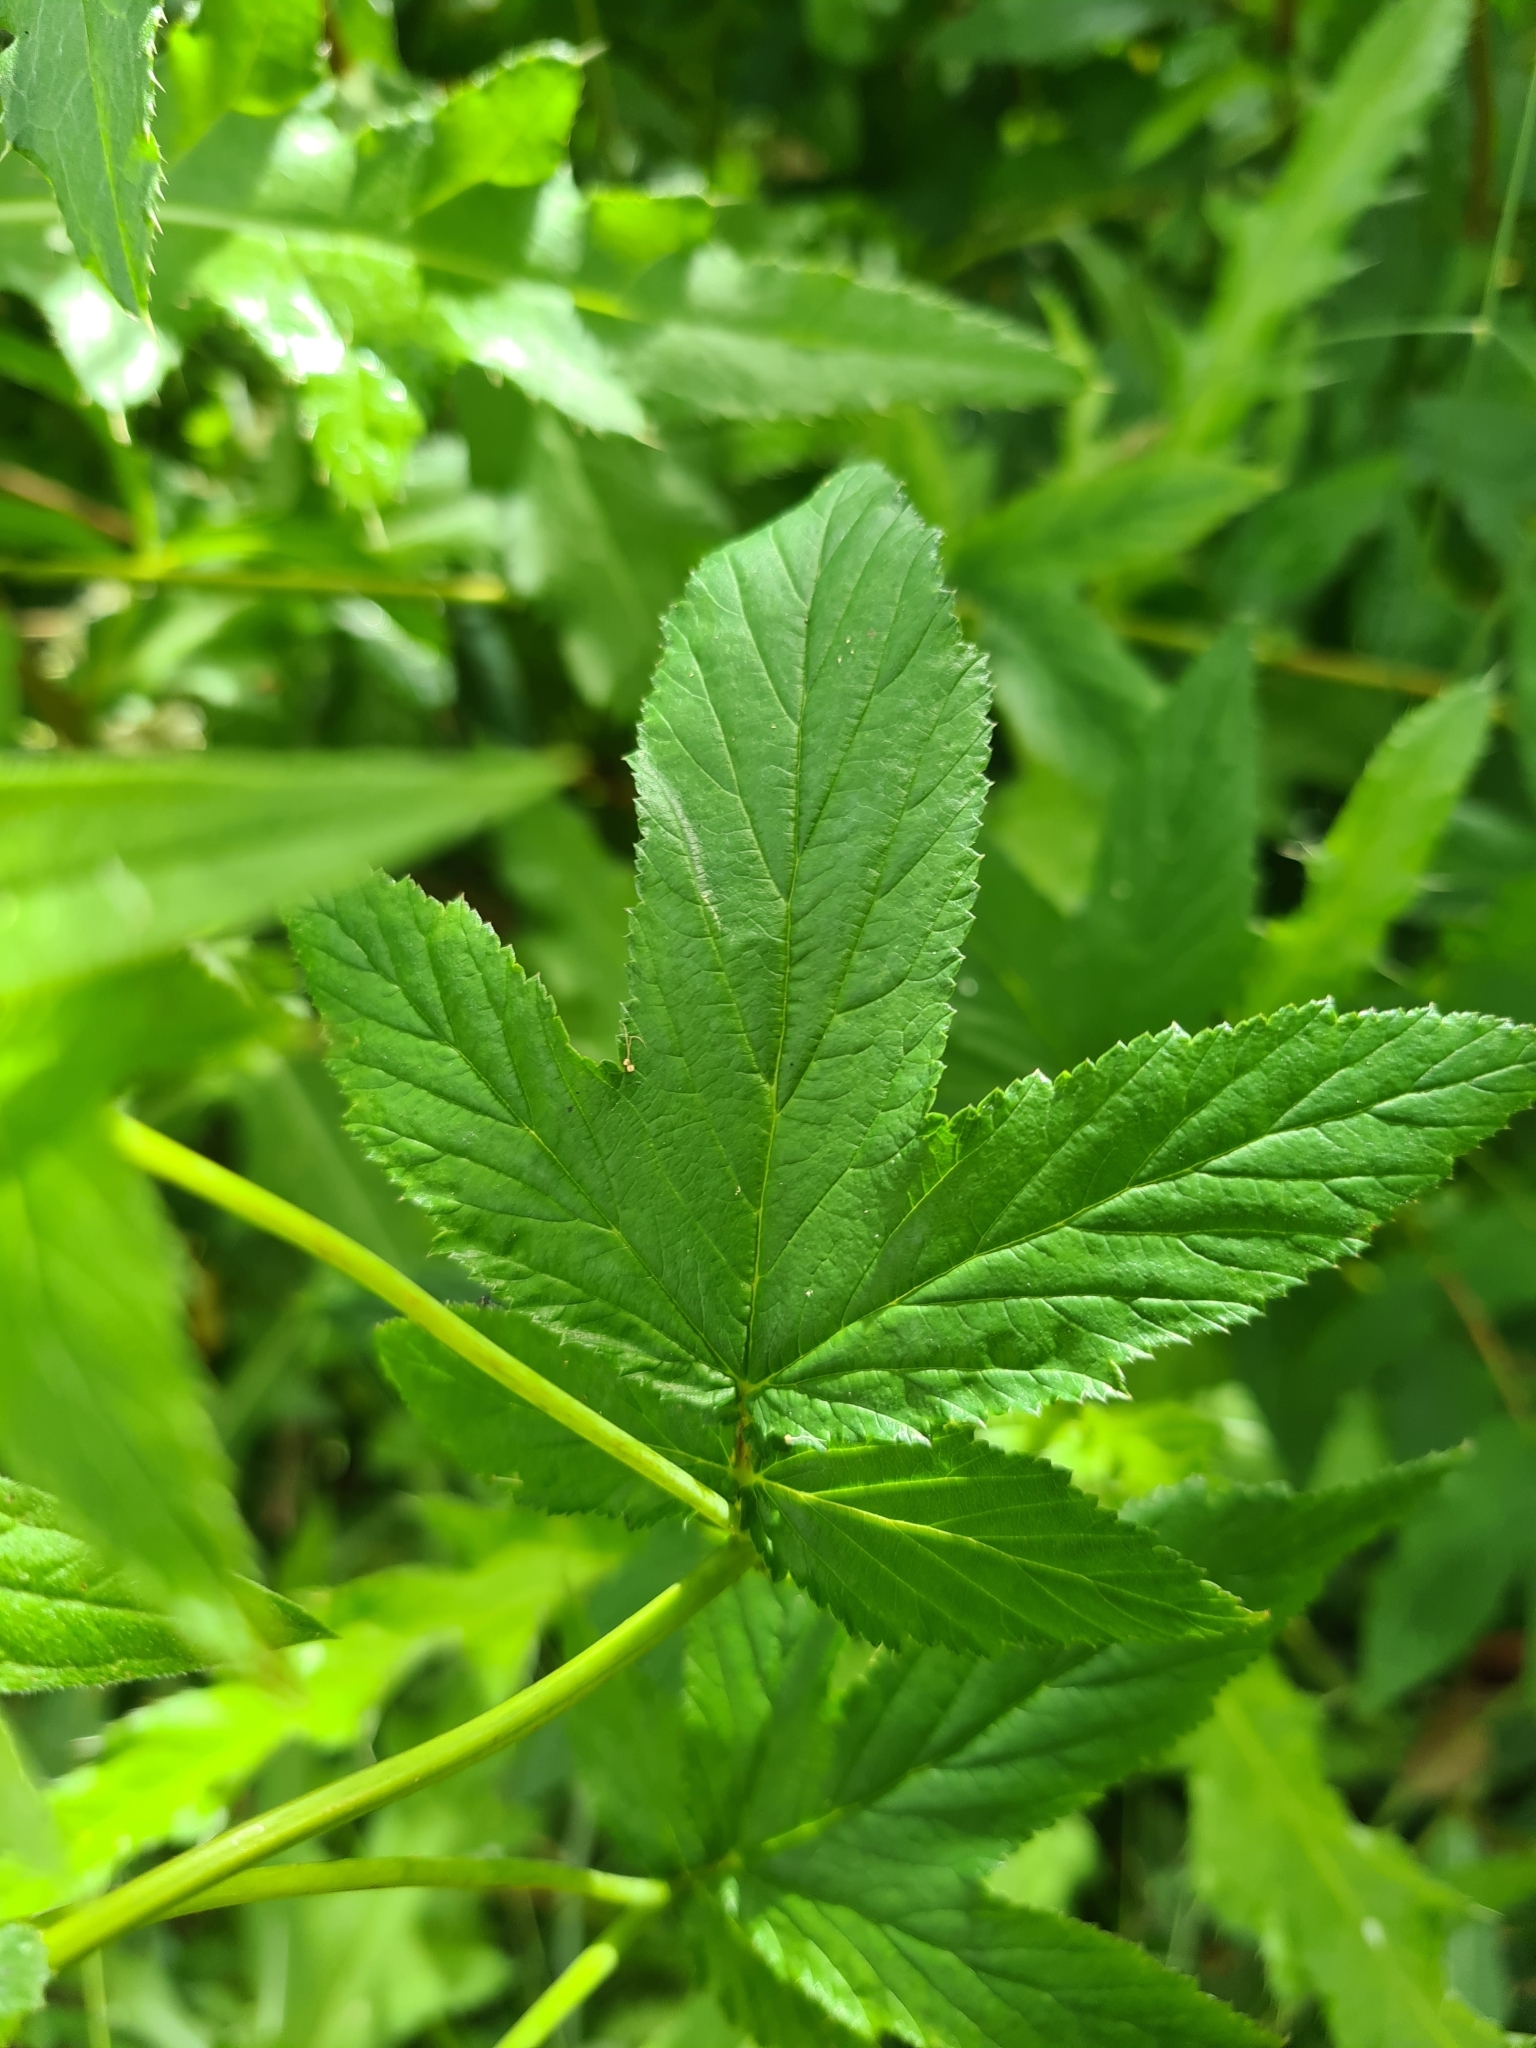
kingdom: Plantae
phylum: Tracheophyta
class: Magnoliopsida
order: Rosales
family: Rosaceae
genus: Filipendula
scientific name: Filipendula ulmaria
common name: Meadowsweet
